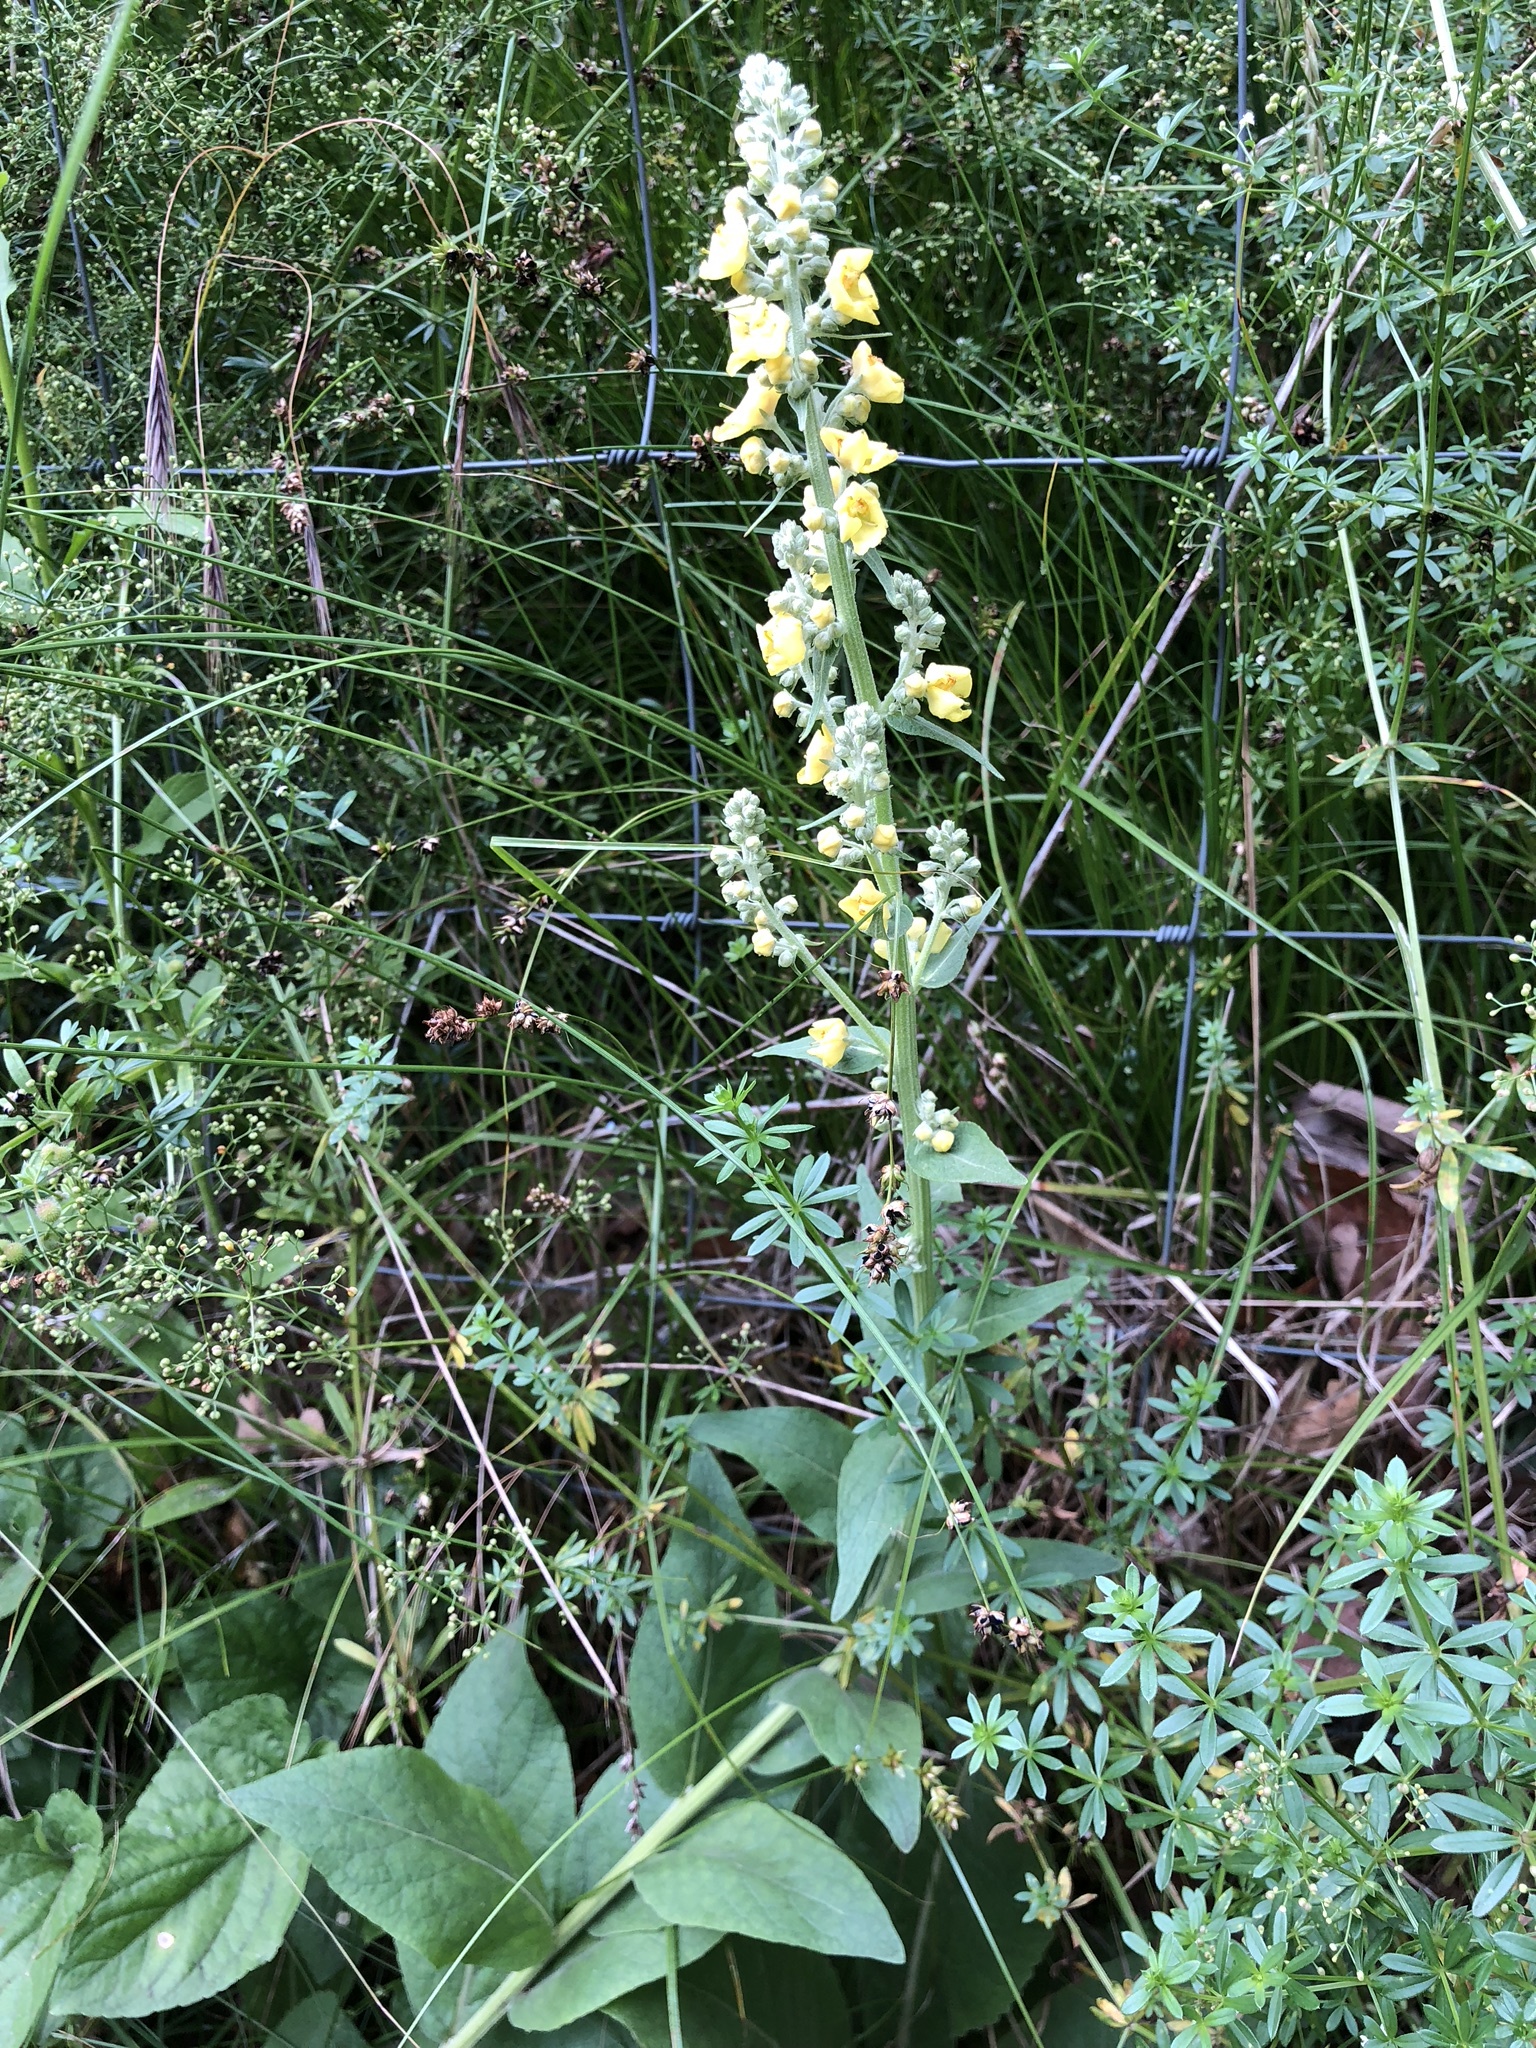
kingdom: Plantae
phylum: Tracheophyta
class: Magnoliopsida
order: Lamiales
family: Scrophulariaceae
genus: Verbascum
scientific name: Verbascum nigrum
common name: Dark mullein
